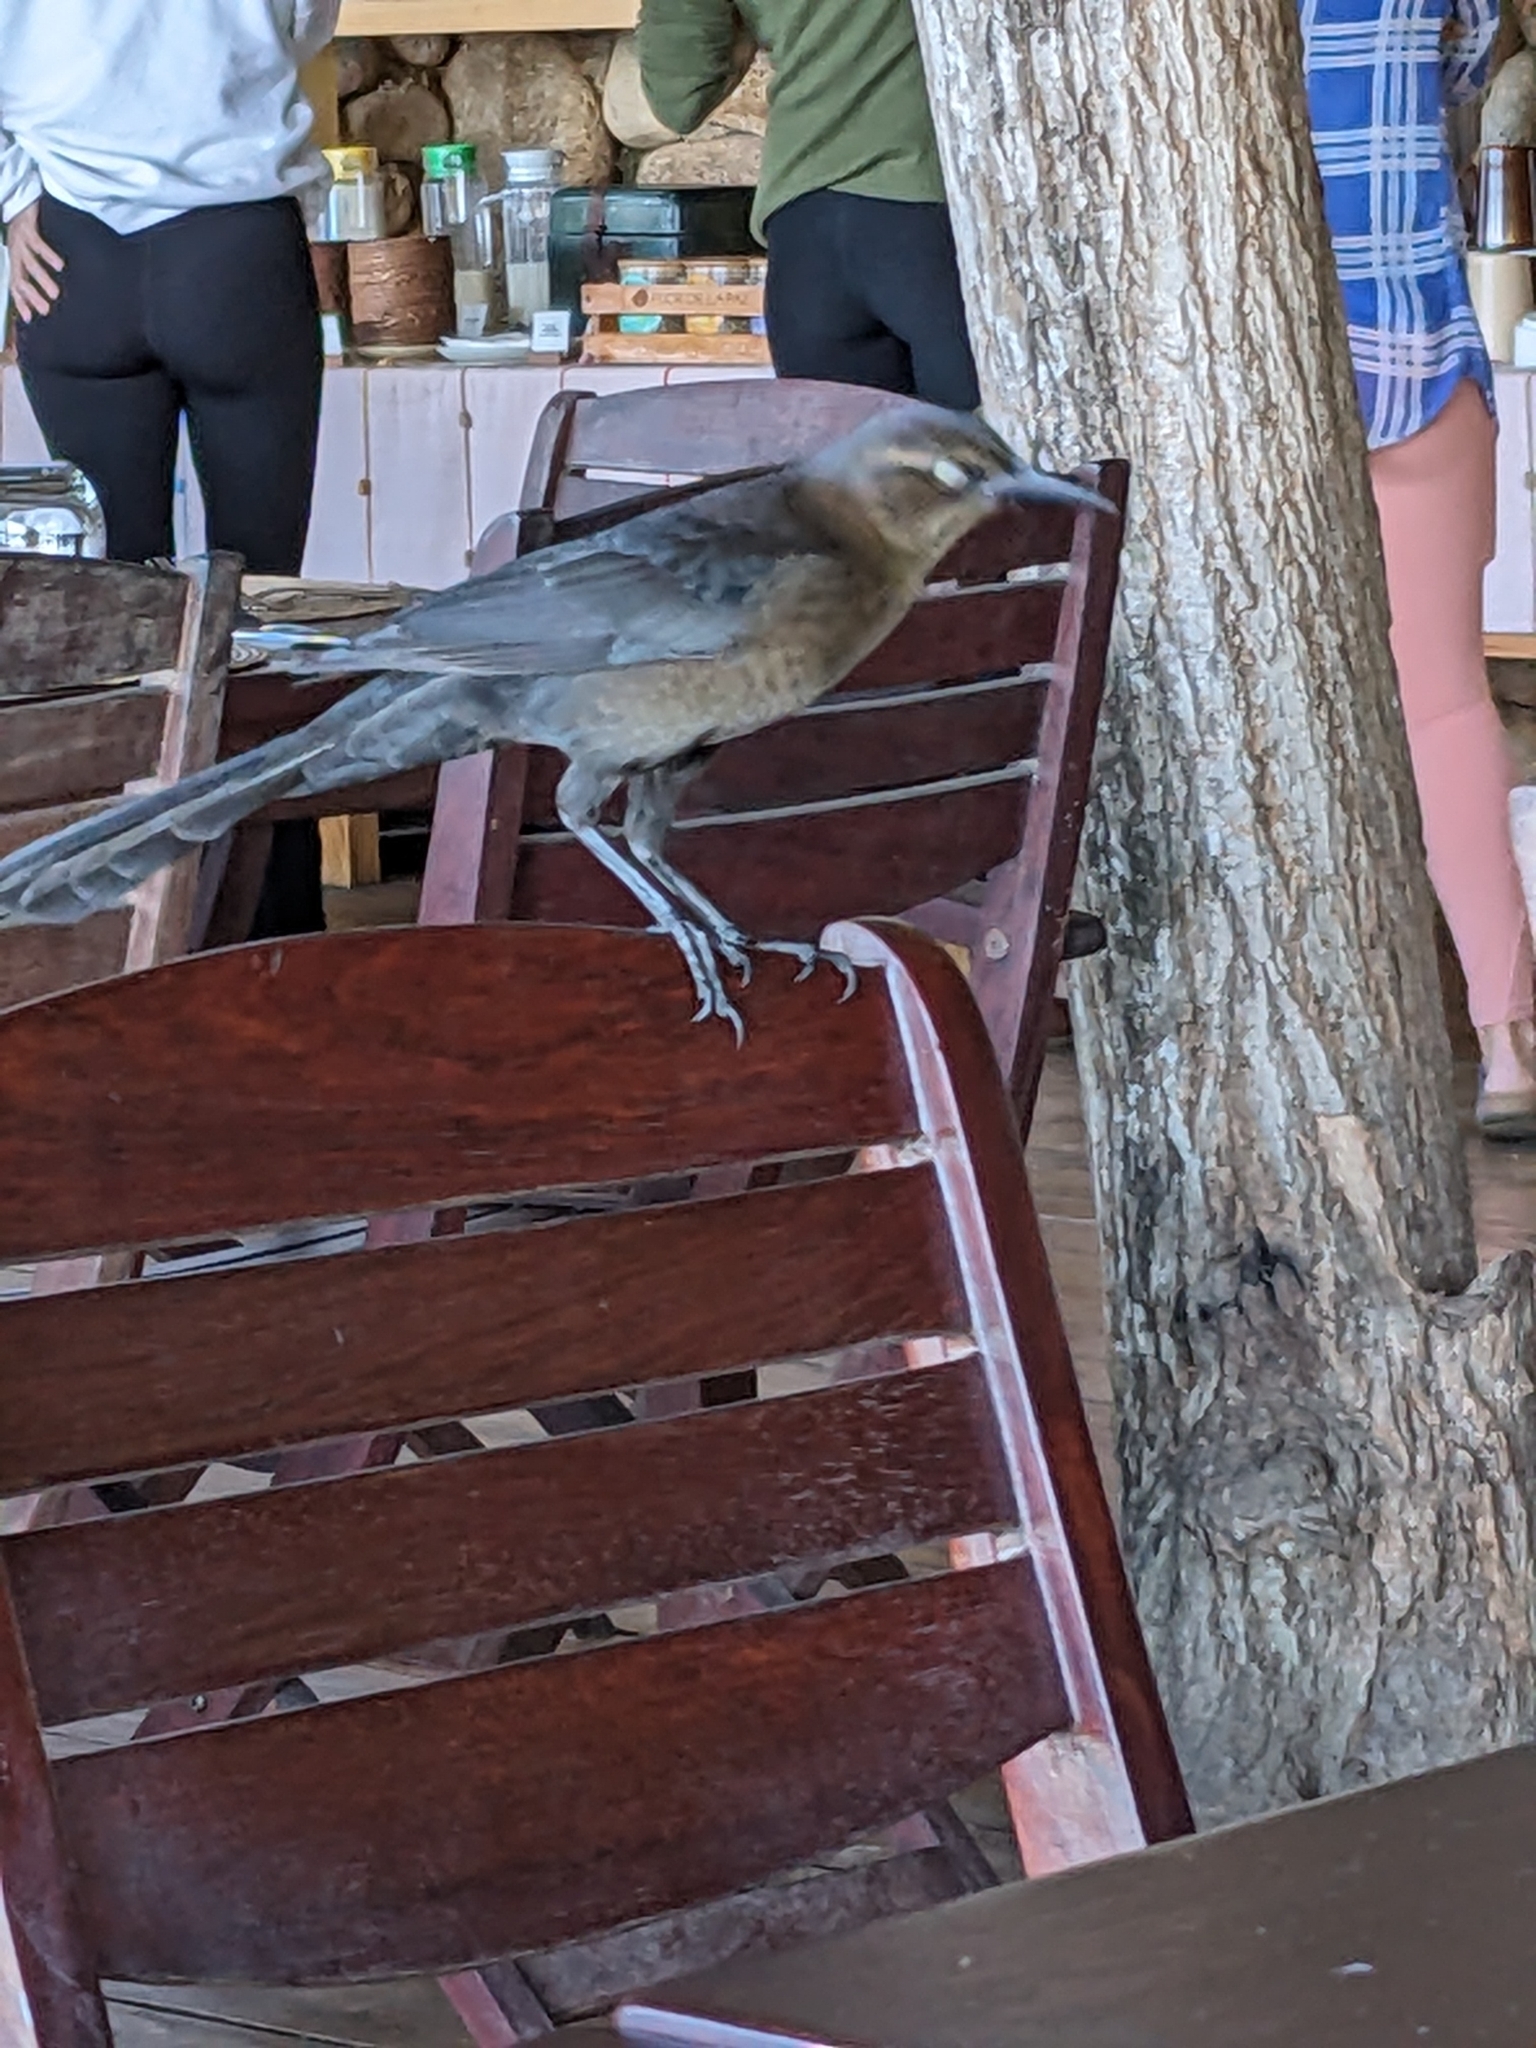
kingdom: Animalia
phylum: Chordata
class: Aves
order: Passeriformes
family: Icteridae
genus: Quiscalus
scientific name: Quiscalus mexicanus
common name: Great-tailed grackle
